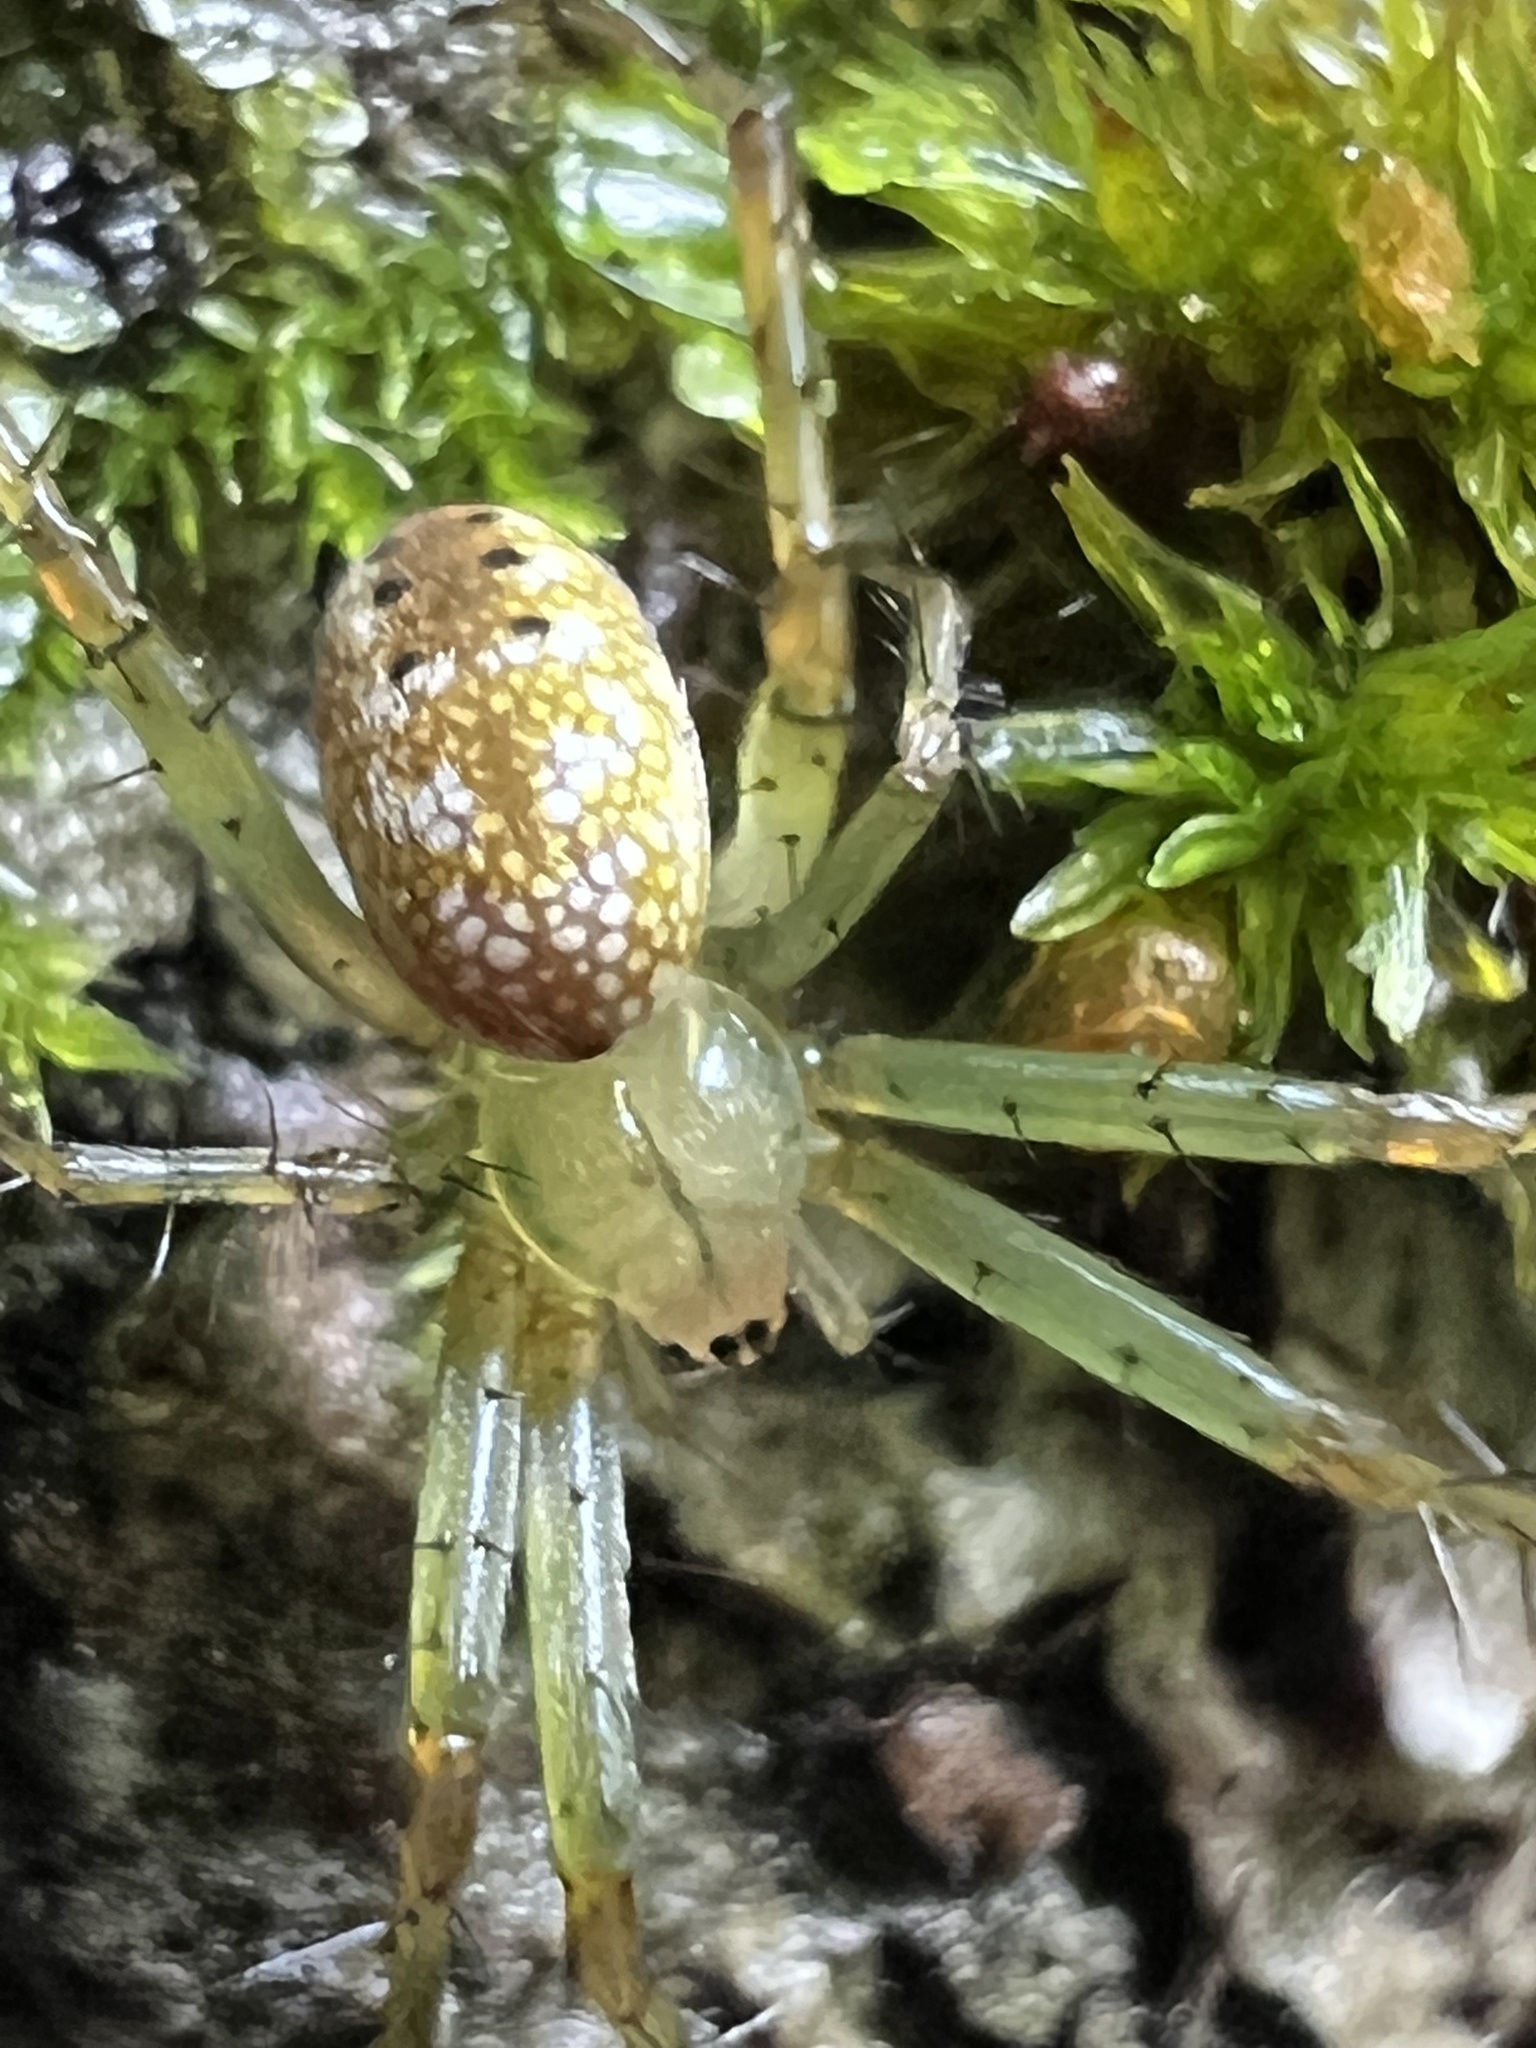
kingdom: Animalia
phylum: Arthropoda
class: Arachnida
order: Araneae
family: Araneidae
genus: Mangora
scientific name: Mangora maculata
